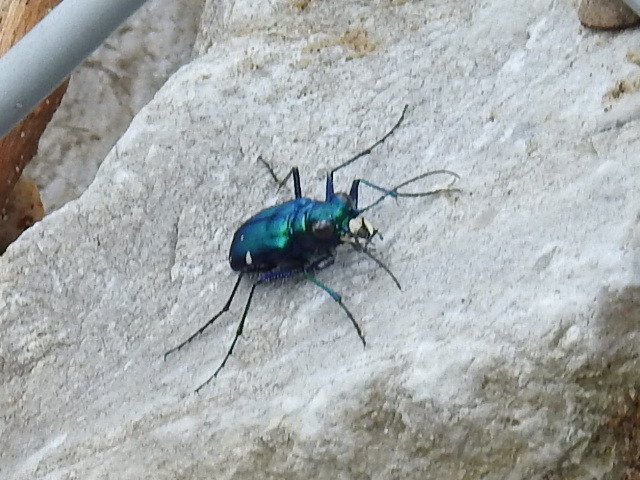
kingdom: Animalia
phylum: Arthropoda
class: Insecta
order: Coleoptera
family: Carabidae
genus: Cicindela
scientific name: Cicindela sexguttata
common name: Six-spotted tiger beetle
